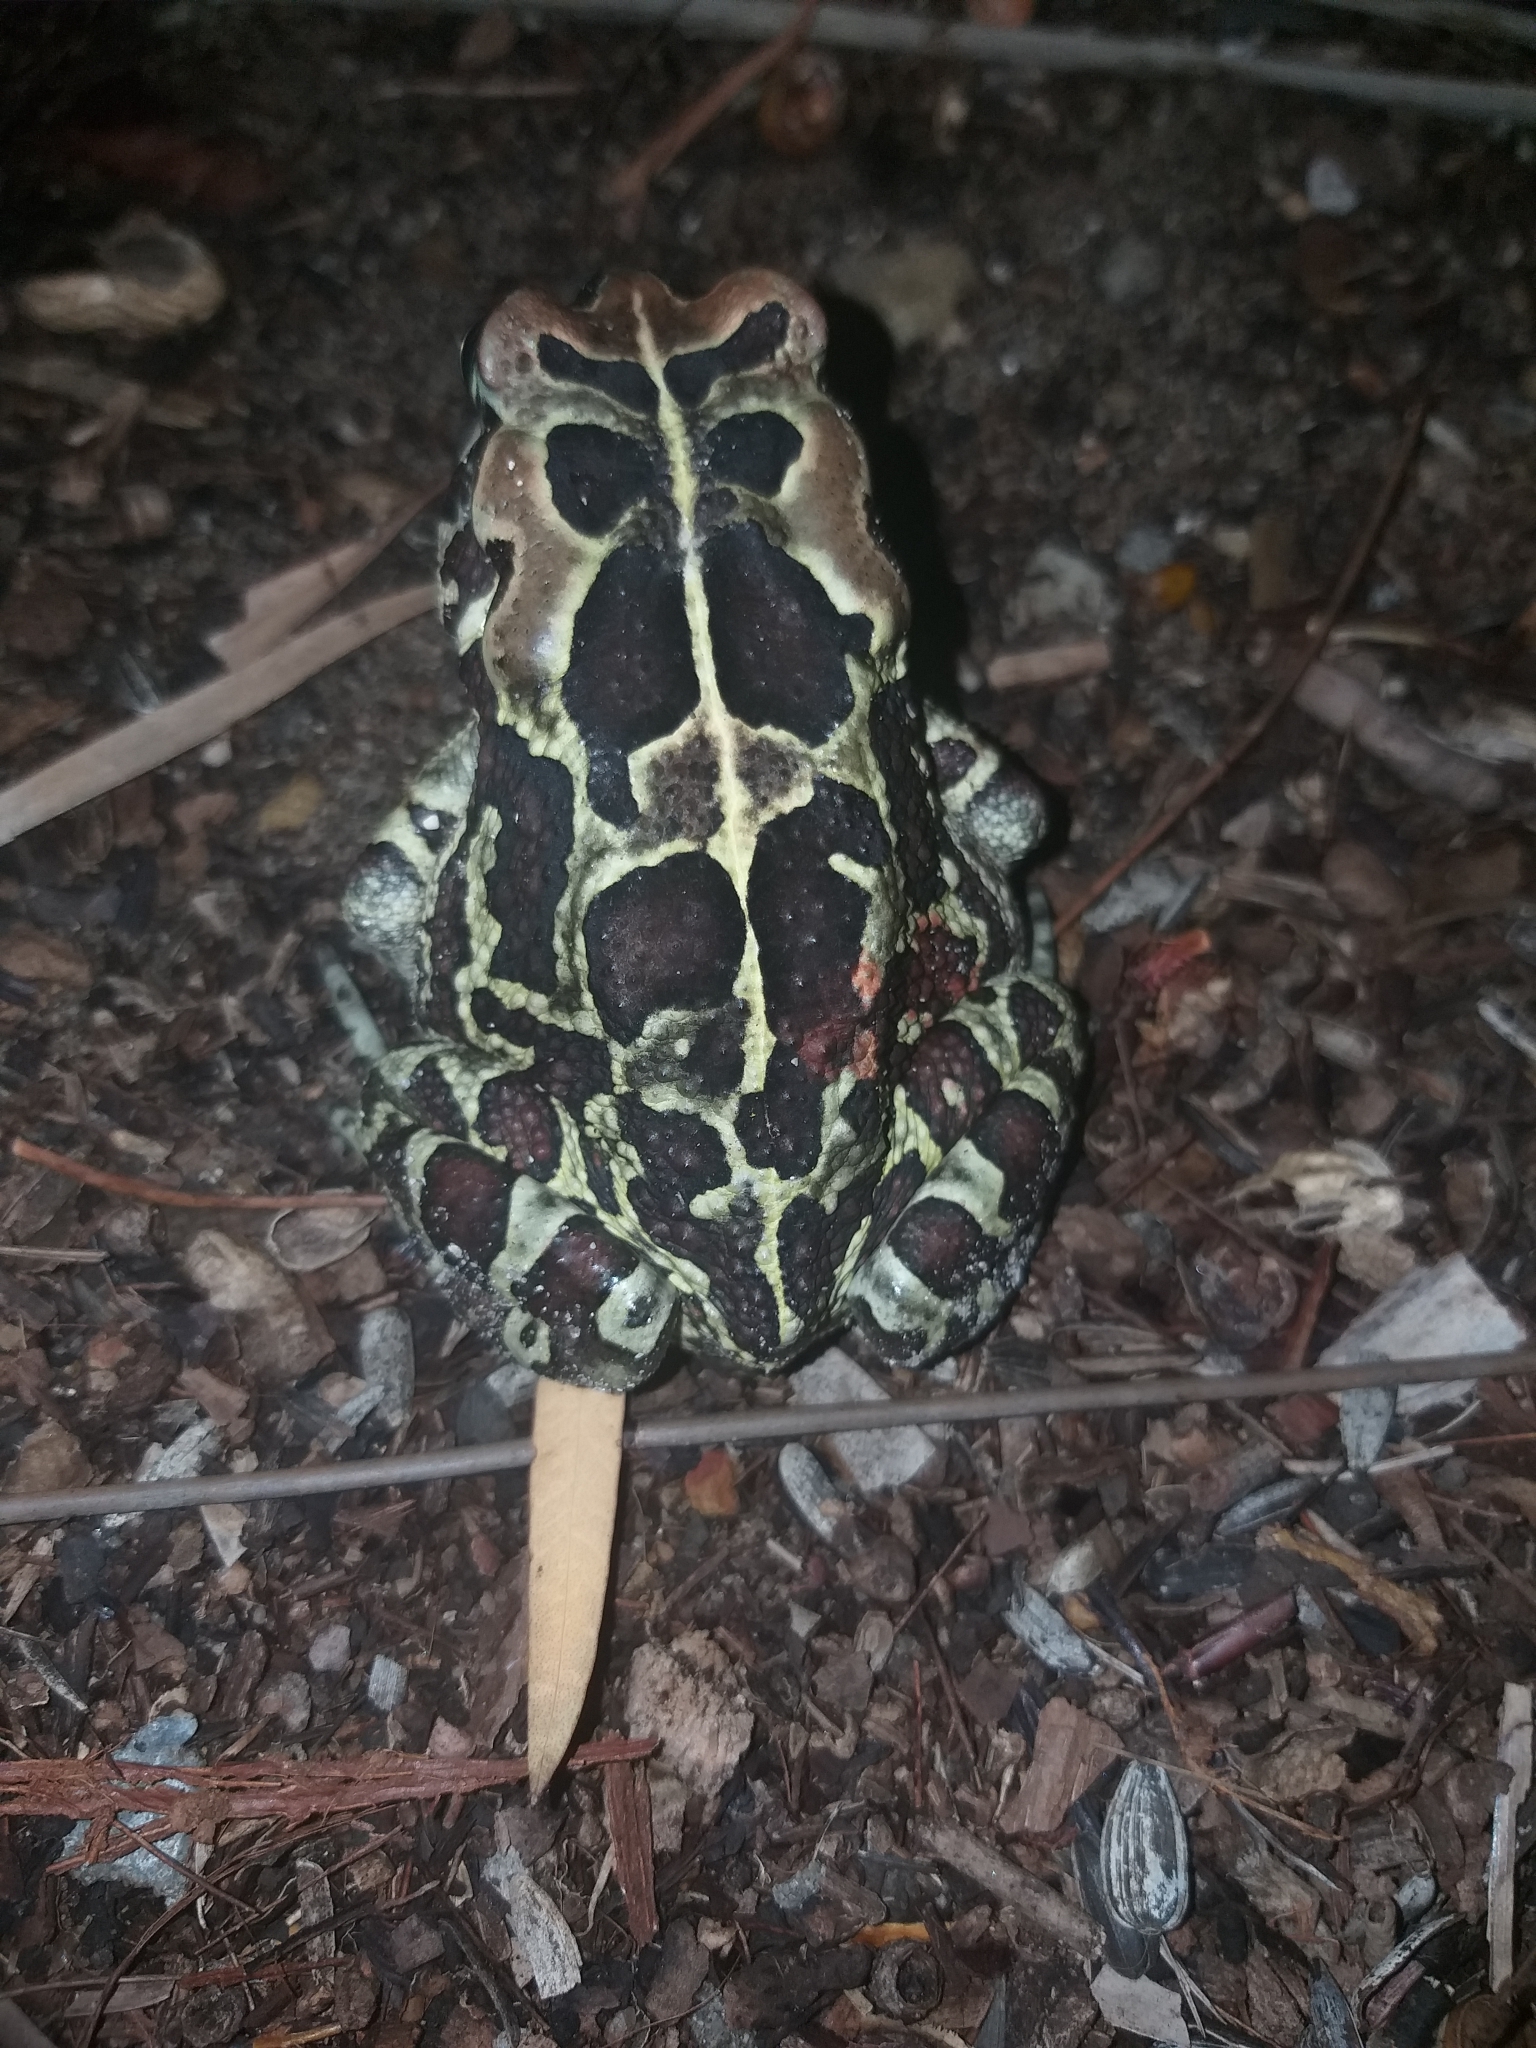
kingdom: Animalia
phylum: Chordata
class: Amphibia
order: Anura
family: Bufonidae
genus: Sclerophrys
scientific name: Sclerophrys pantherina
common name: Panther toad
